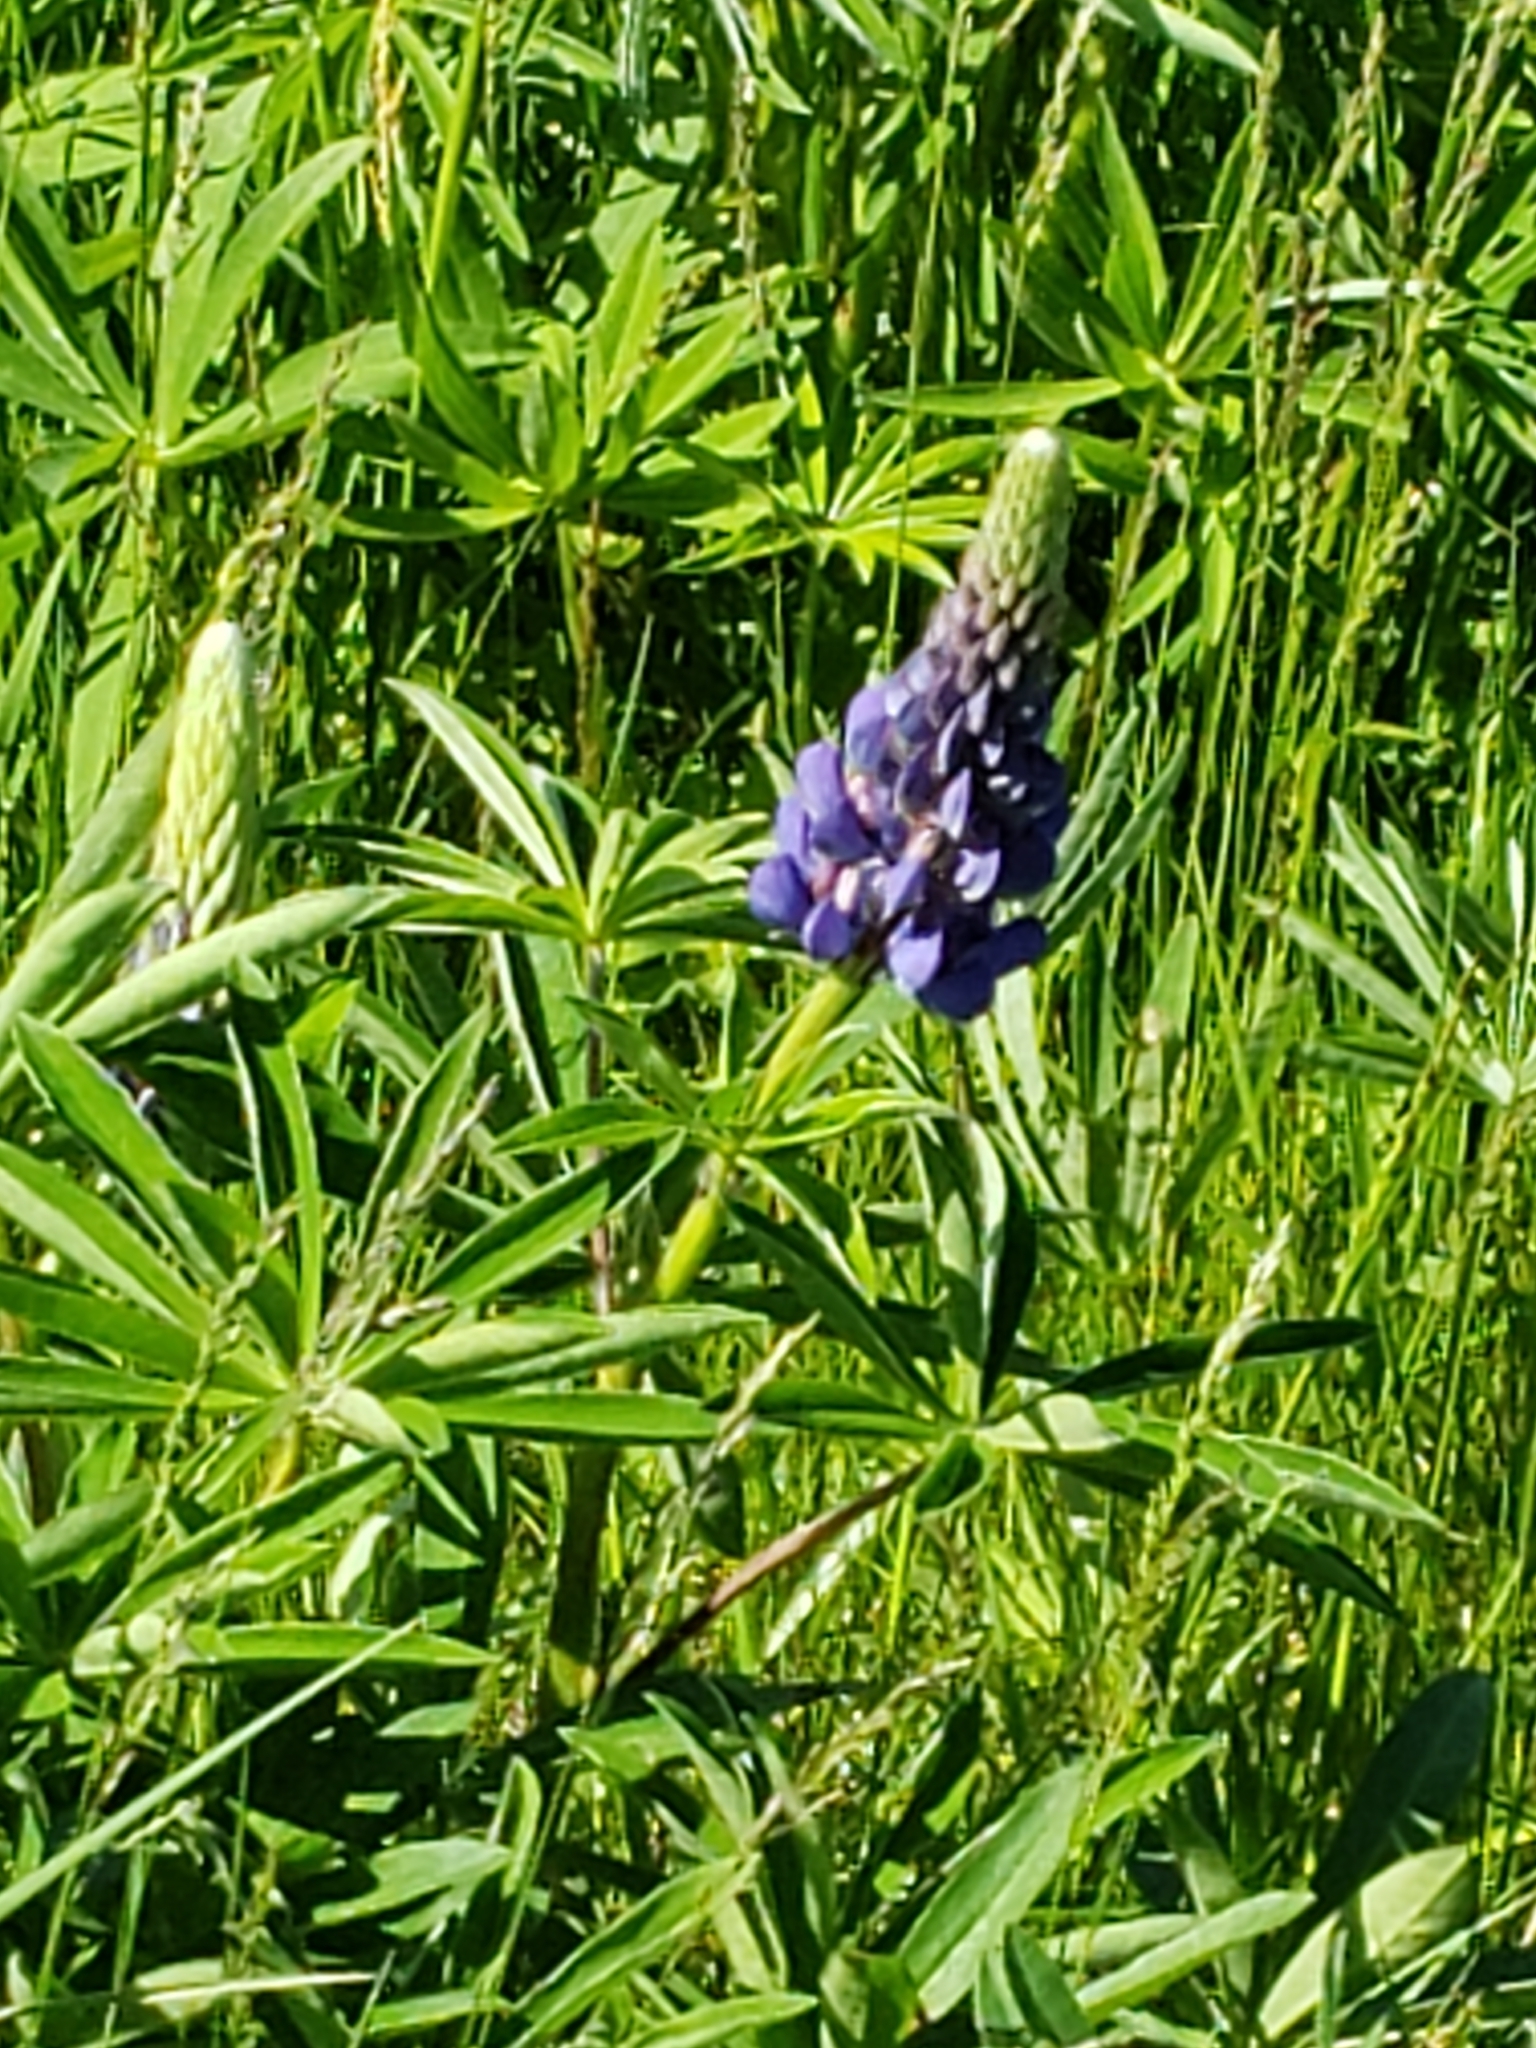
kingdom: Plantae
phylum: Tracheophyta
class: Magnoliopsida
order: Fabales
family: Fabaceae
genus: Lupinus
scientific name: Lupinus polyphyllus
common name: Garden lupin
